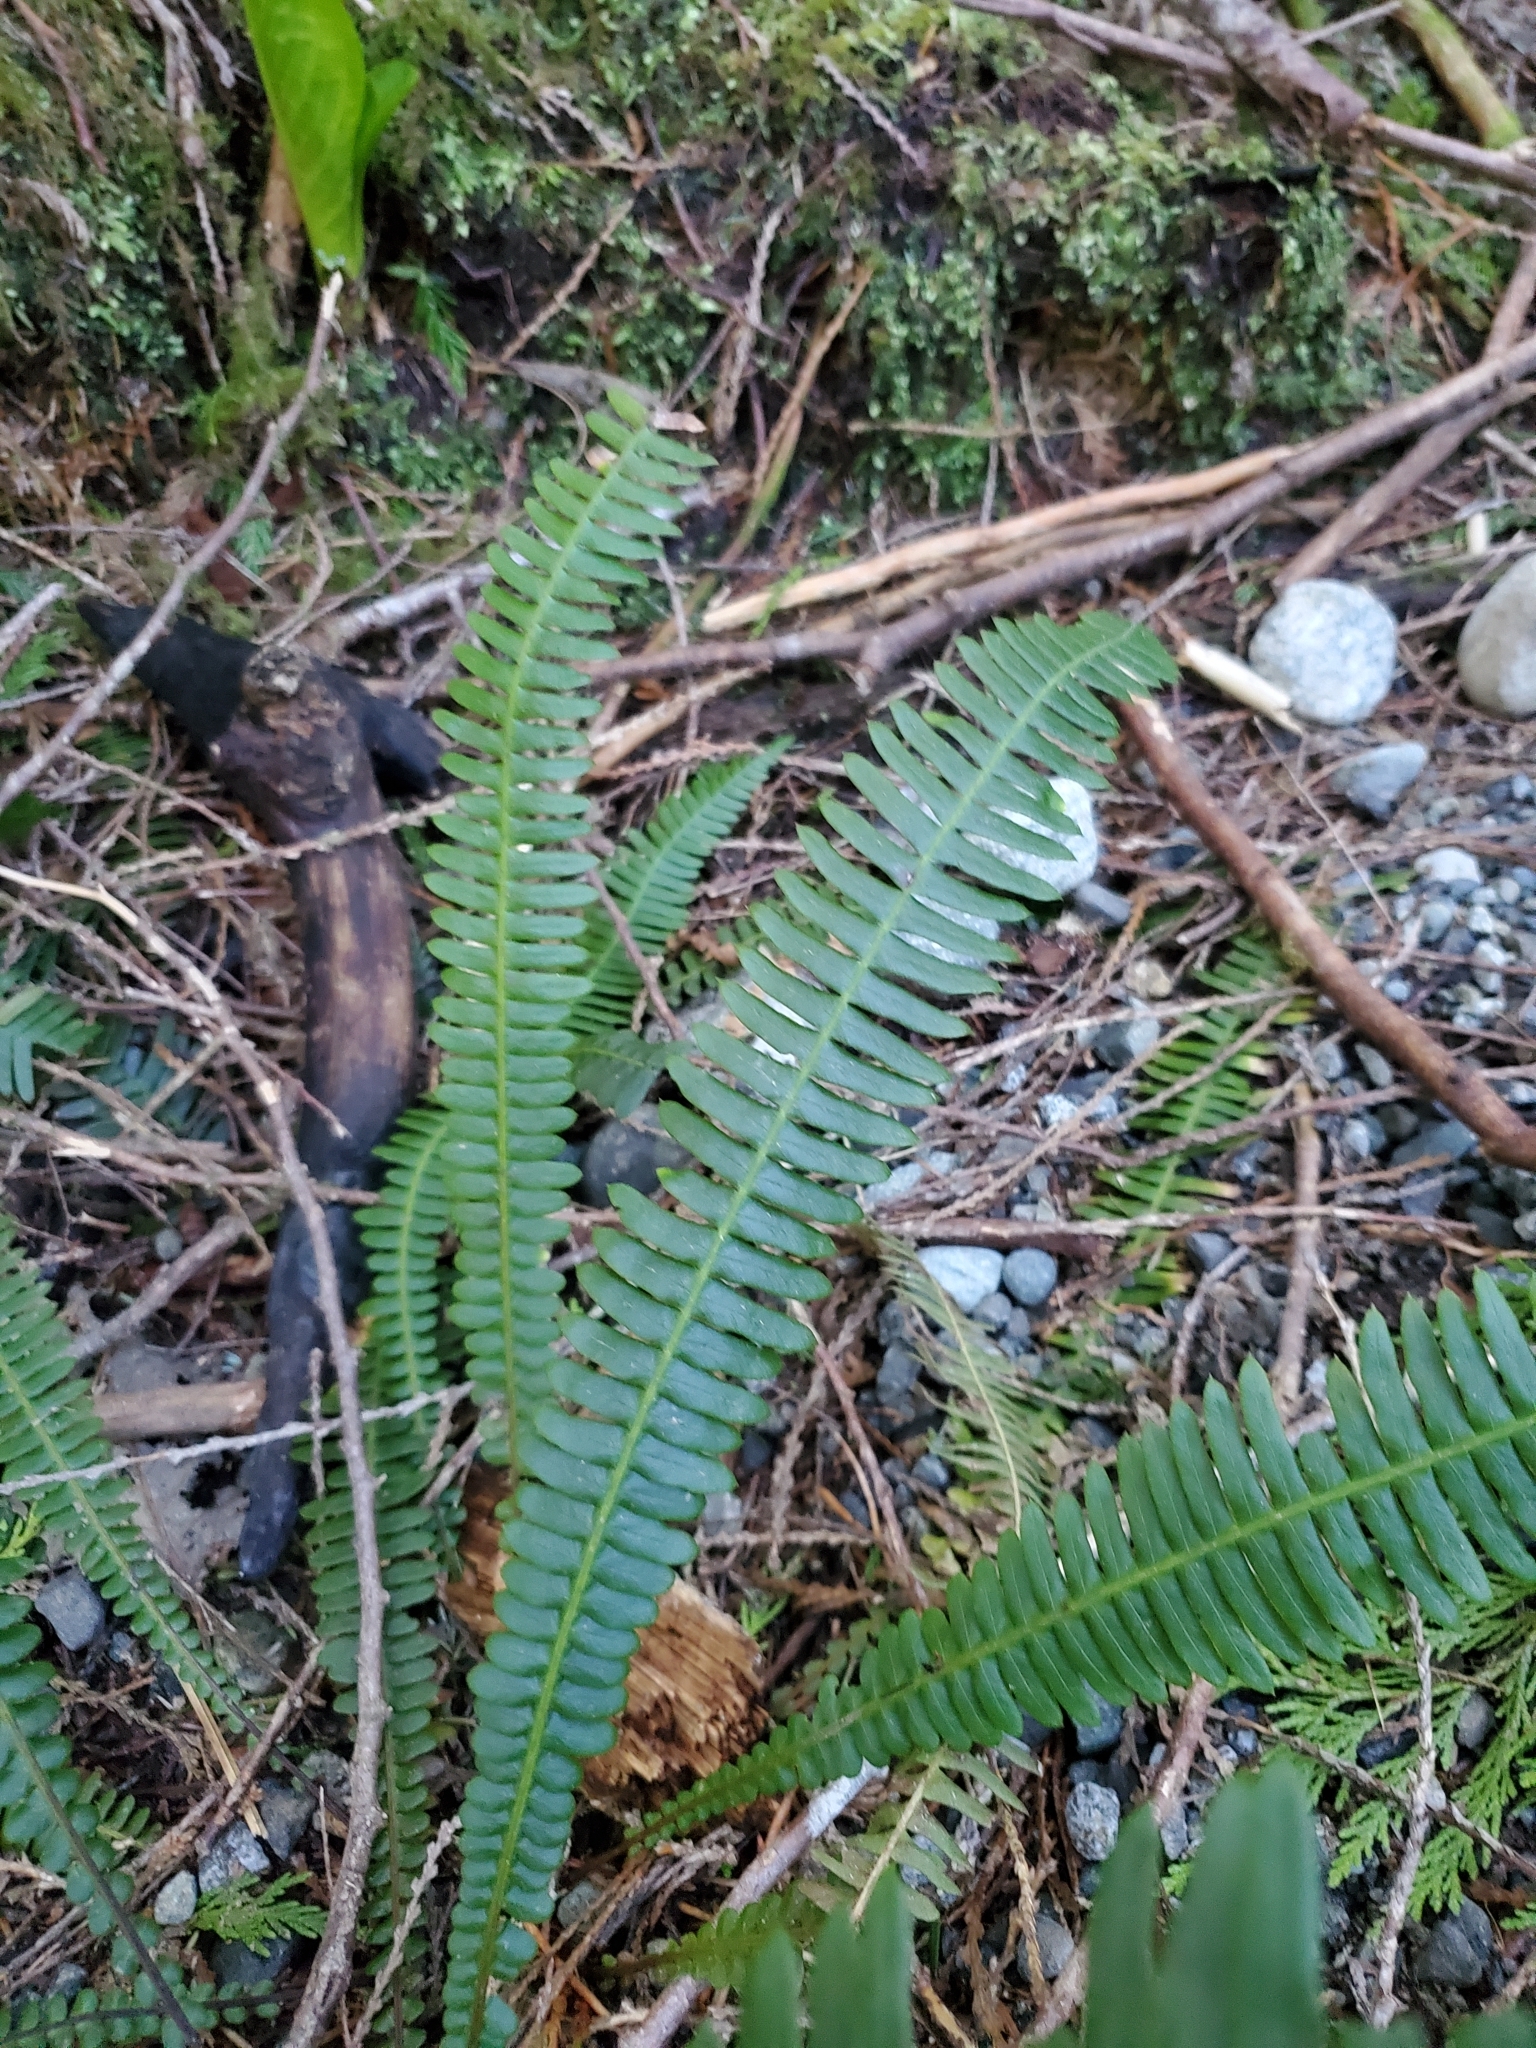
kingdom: Plantae
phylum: Tracheophyta
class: Polypodiopsida
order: Polypodiales
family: Blechnaceae
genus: Struthiopteris
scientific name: Struthiopteris spicant
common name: Deer fern
